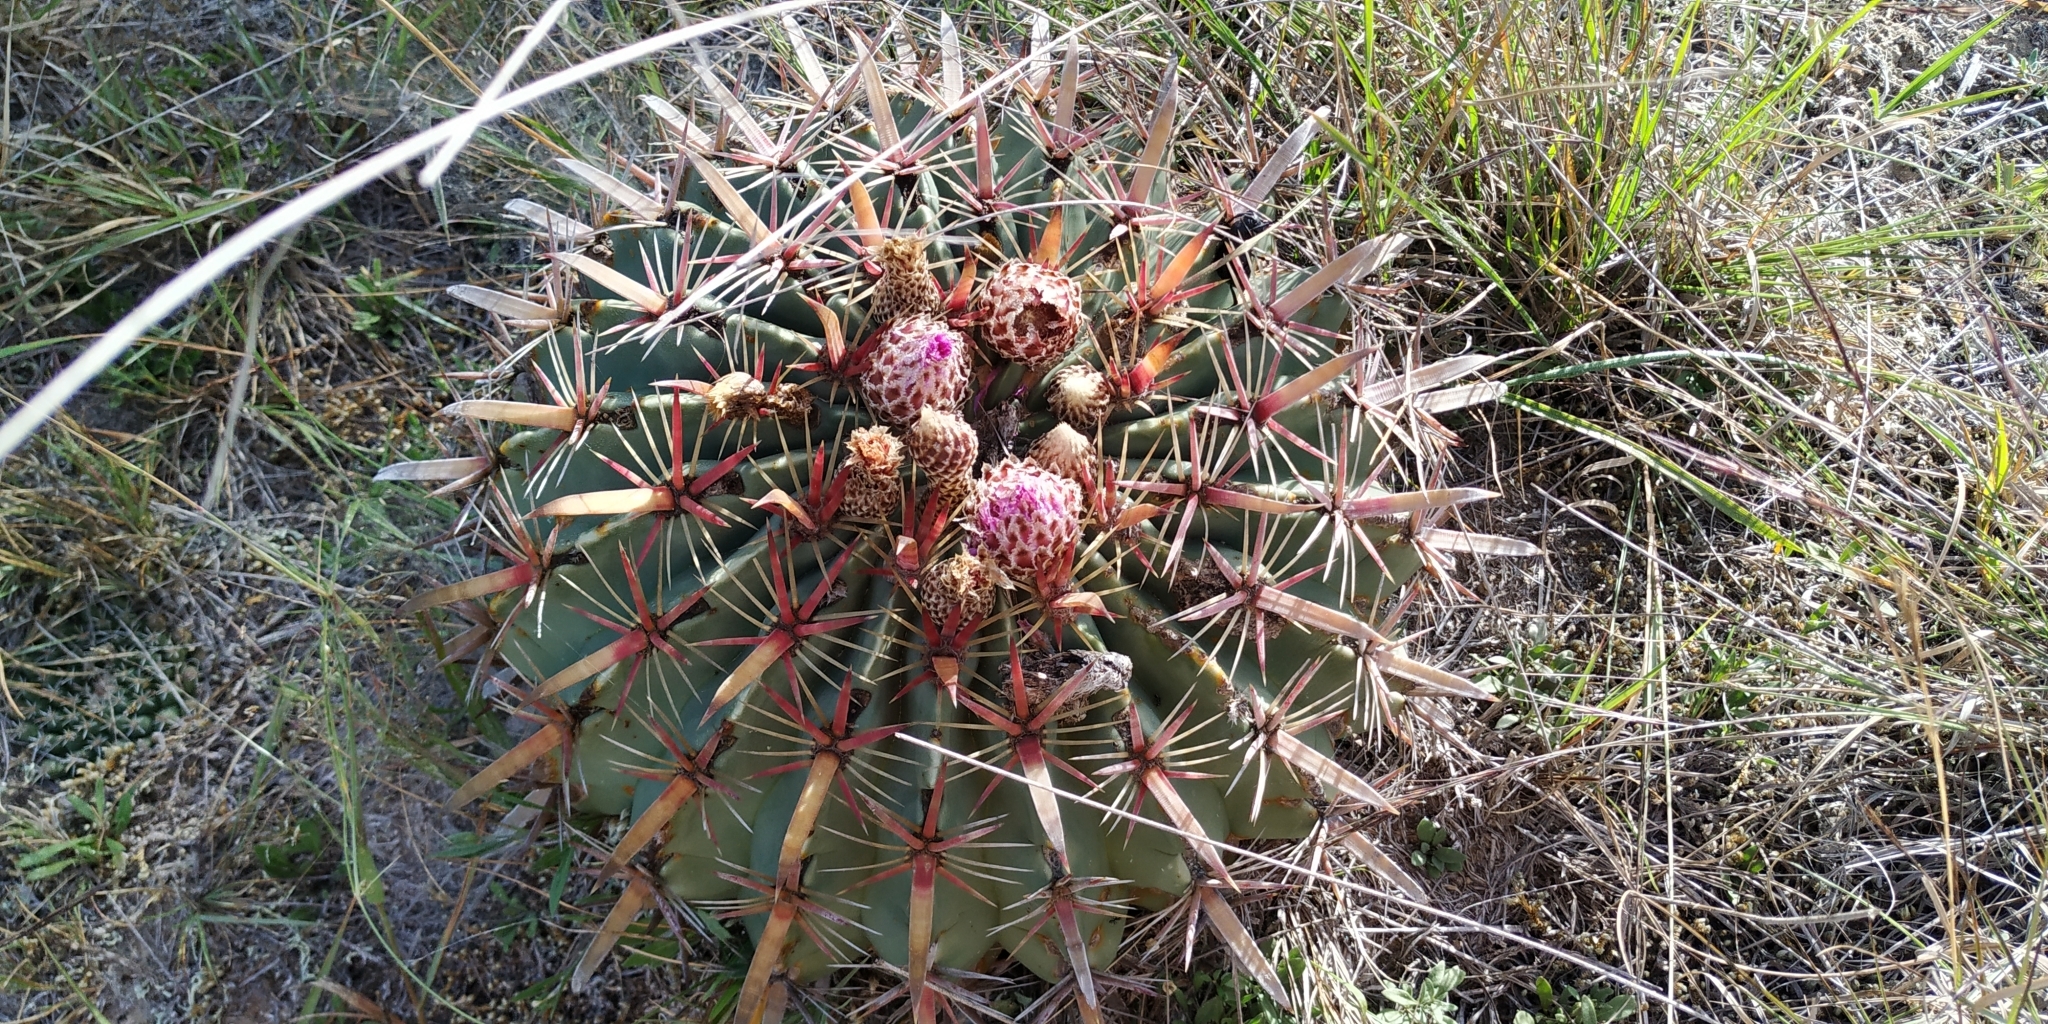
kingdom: Plantae
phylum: Tracheophyta
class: Magnoliopsida
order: Caryophyllales
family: Cactaceae
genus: Ferocactus
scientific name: Ferocactus latispinus
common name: Devil's-tongue cactus
